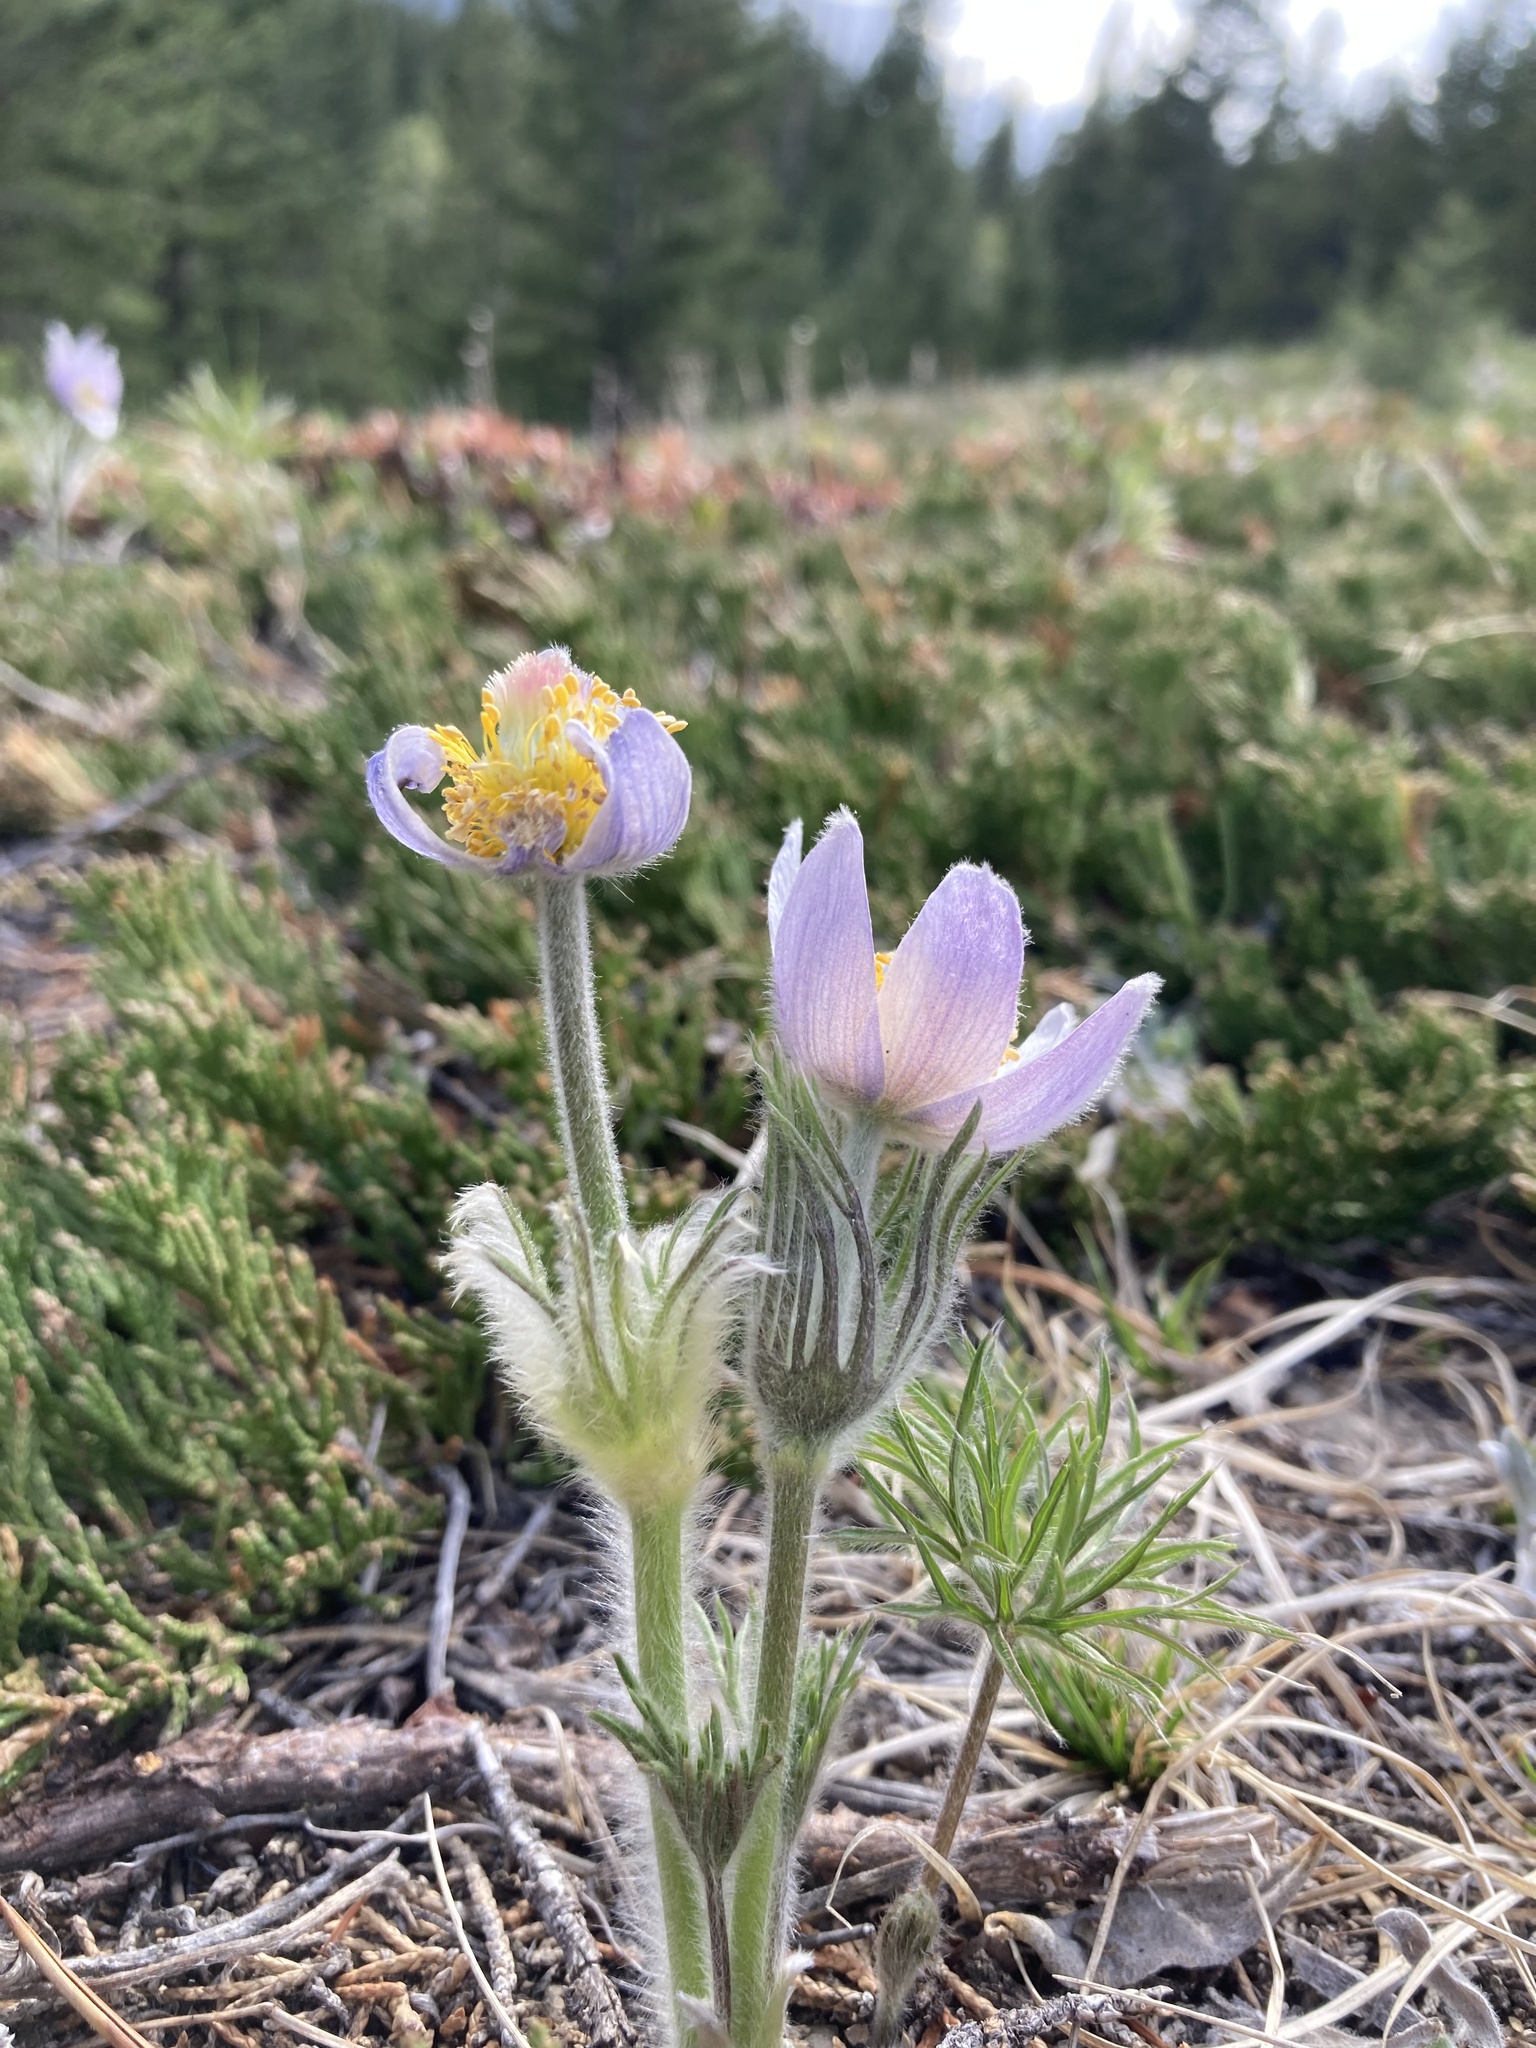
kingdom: Plantae
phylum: Tracheophyta
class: Magnoliopsida
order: Ranunculales
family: Ranunculaceae
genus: Pulsatilla
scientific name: Pulsatilla nuttalliana
